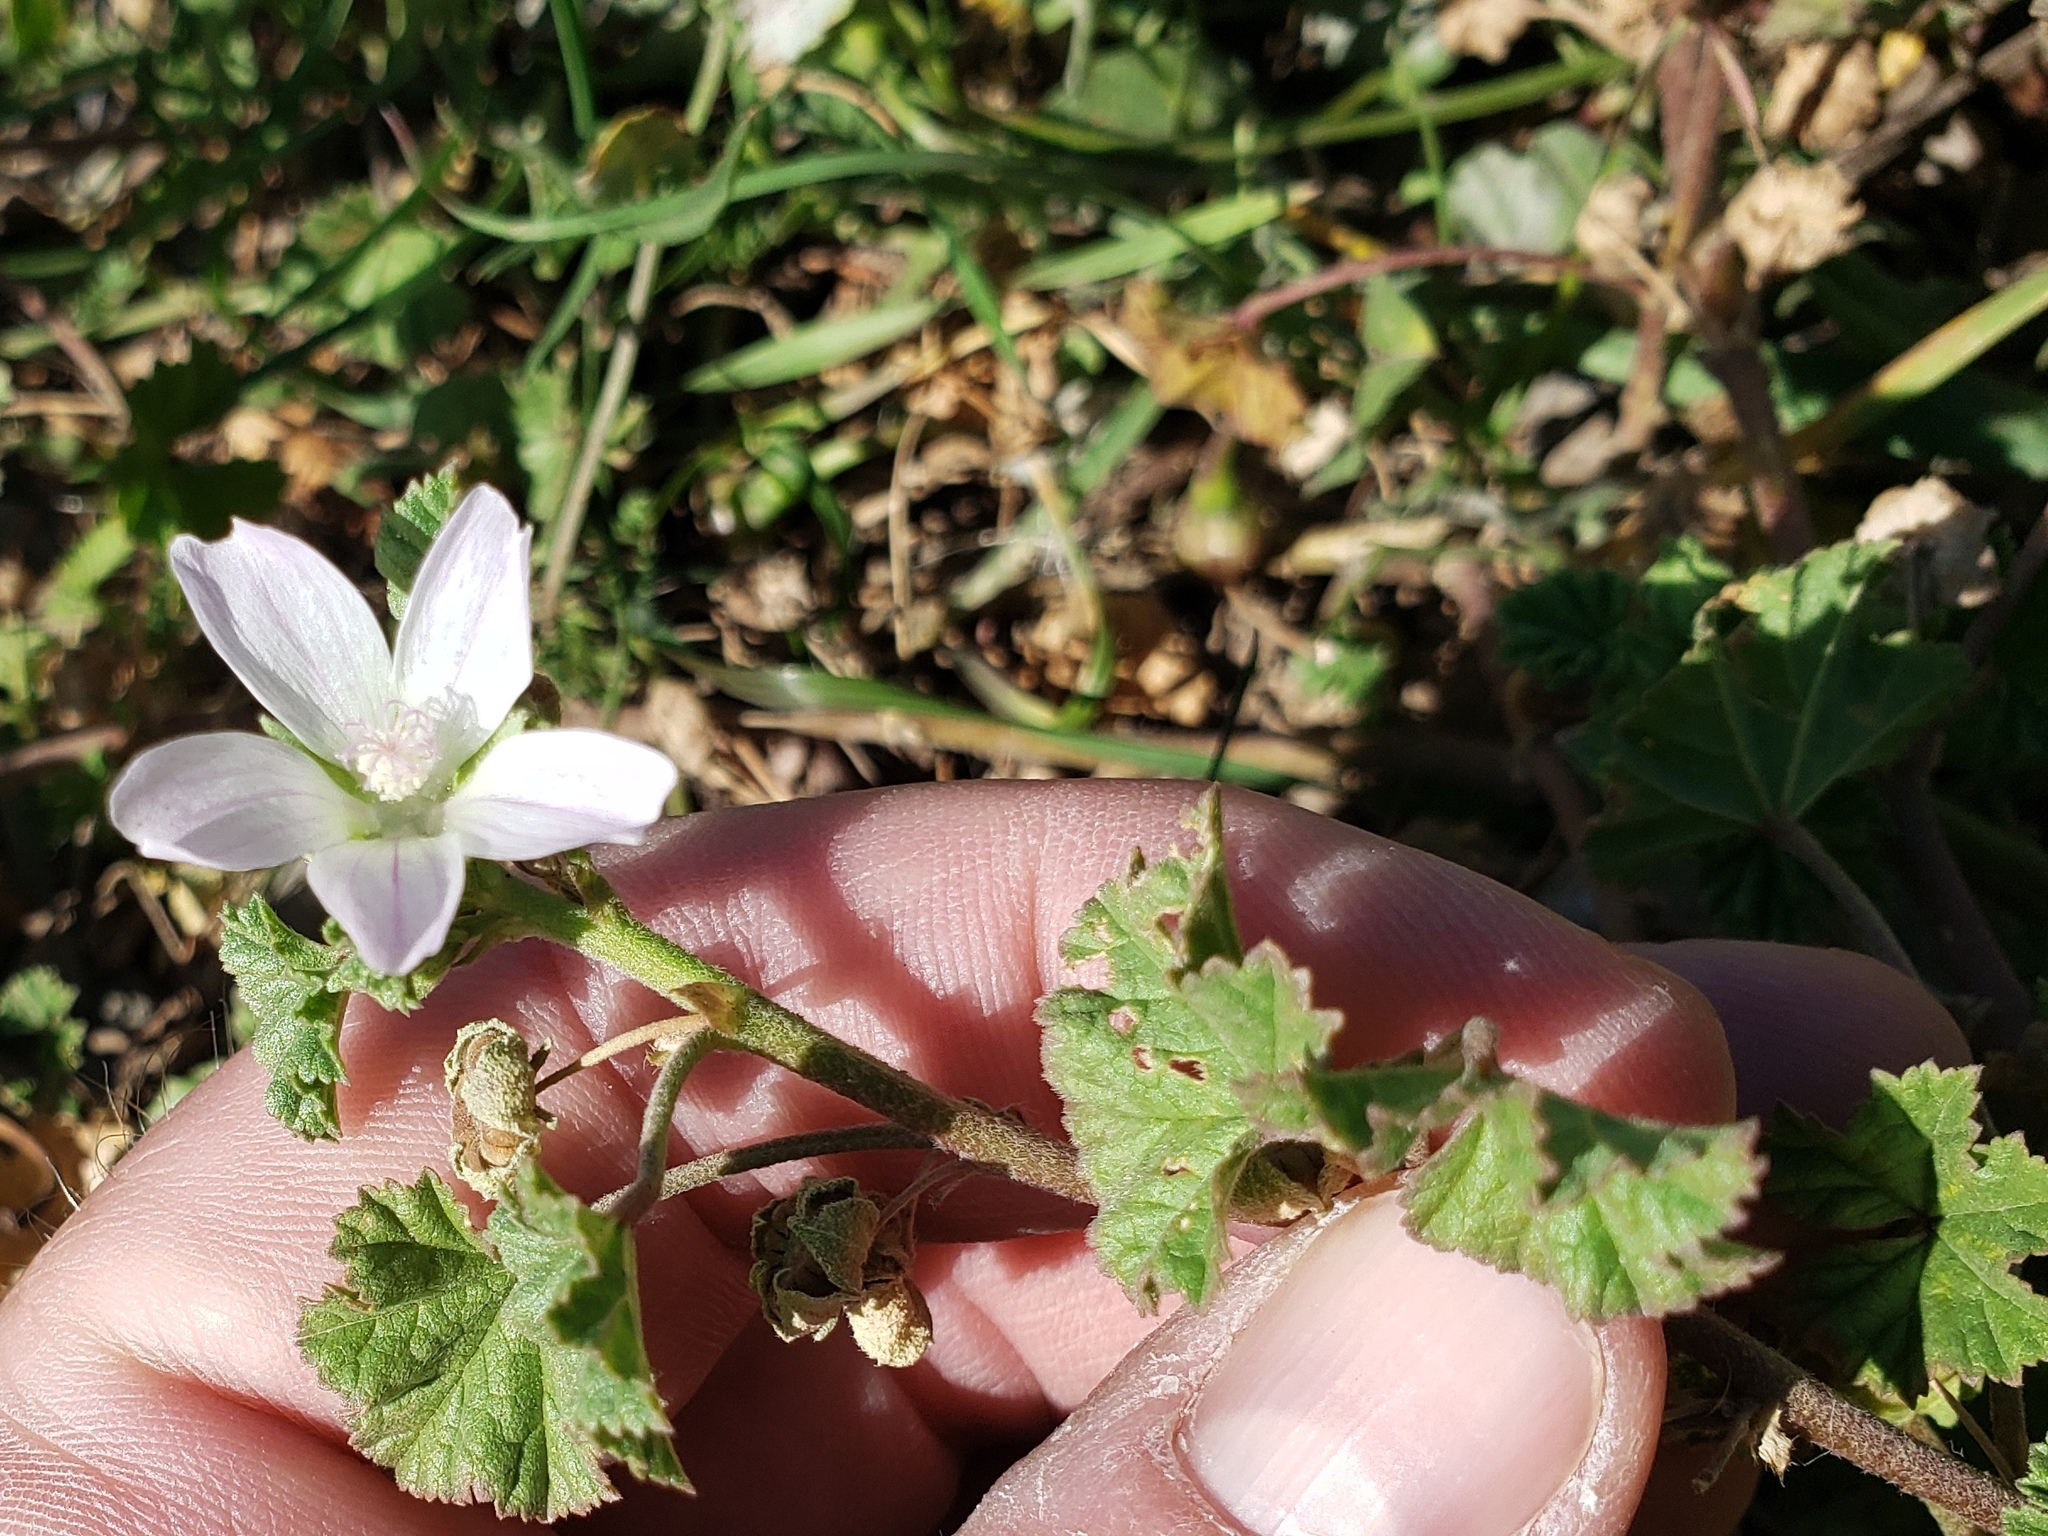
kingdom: Plantae
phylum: Tracheophyta
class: Magnoliopsida
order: Malvales
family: Malvaceae
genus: Malva
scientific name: Malva neglecta
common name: Common mallow
